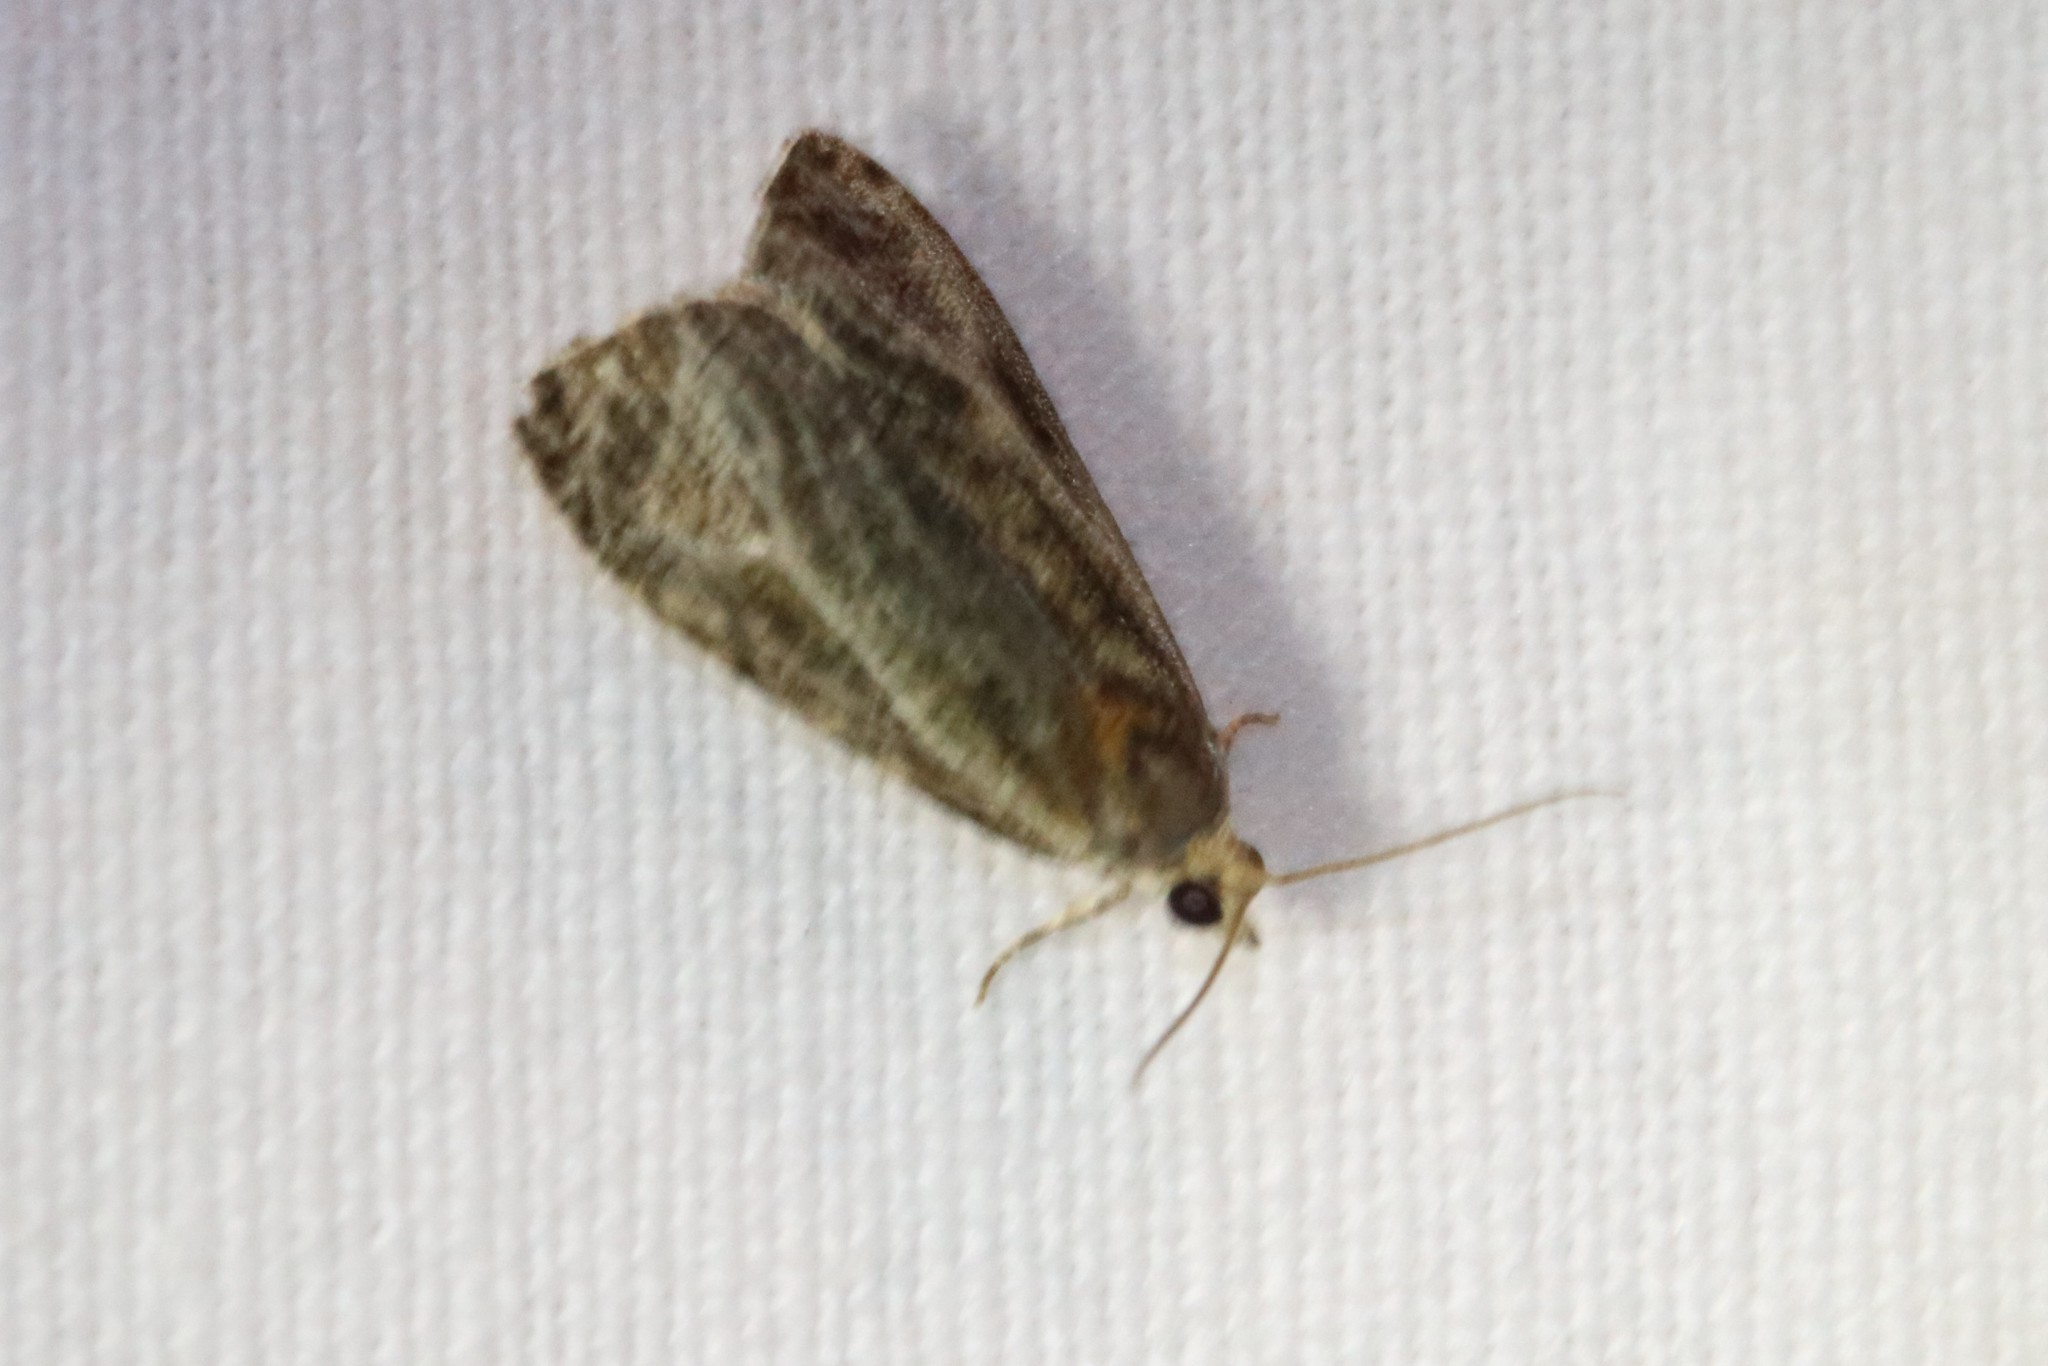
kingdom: Animalia
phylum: Arthropoda
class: Insecta
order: Lepidoptera
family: Tortricidae
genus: Olethreutes
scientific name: Olethreutes quadrifidum
